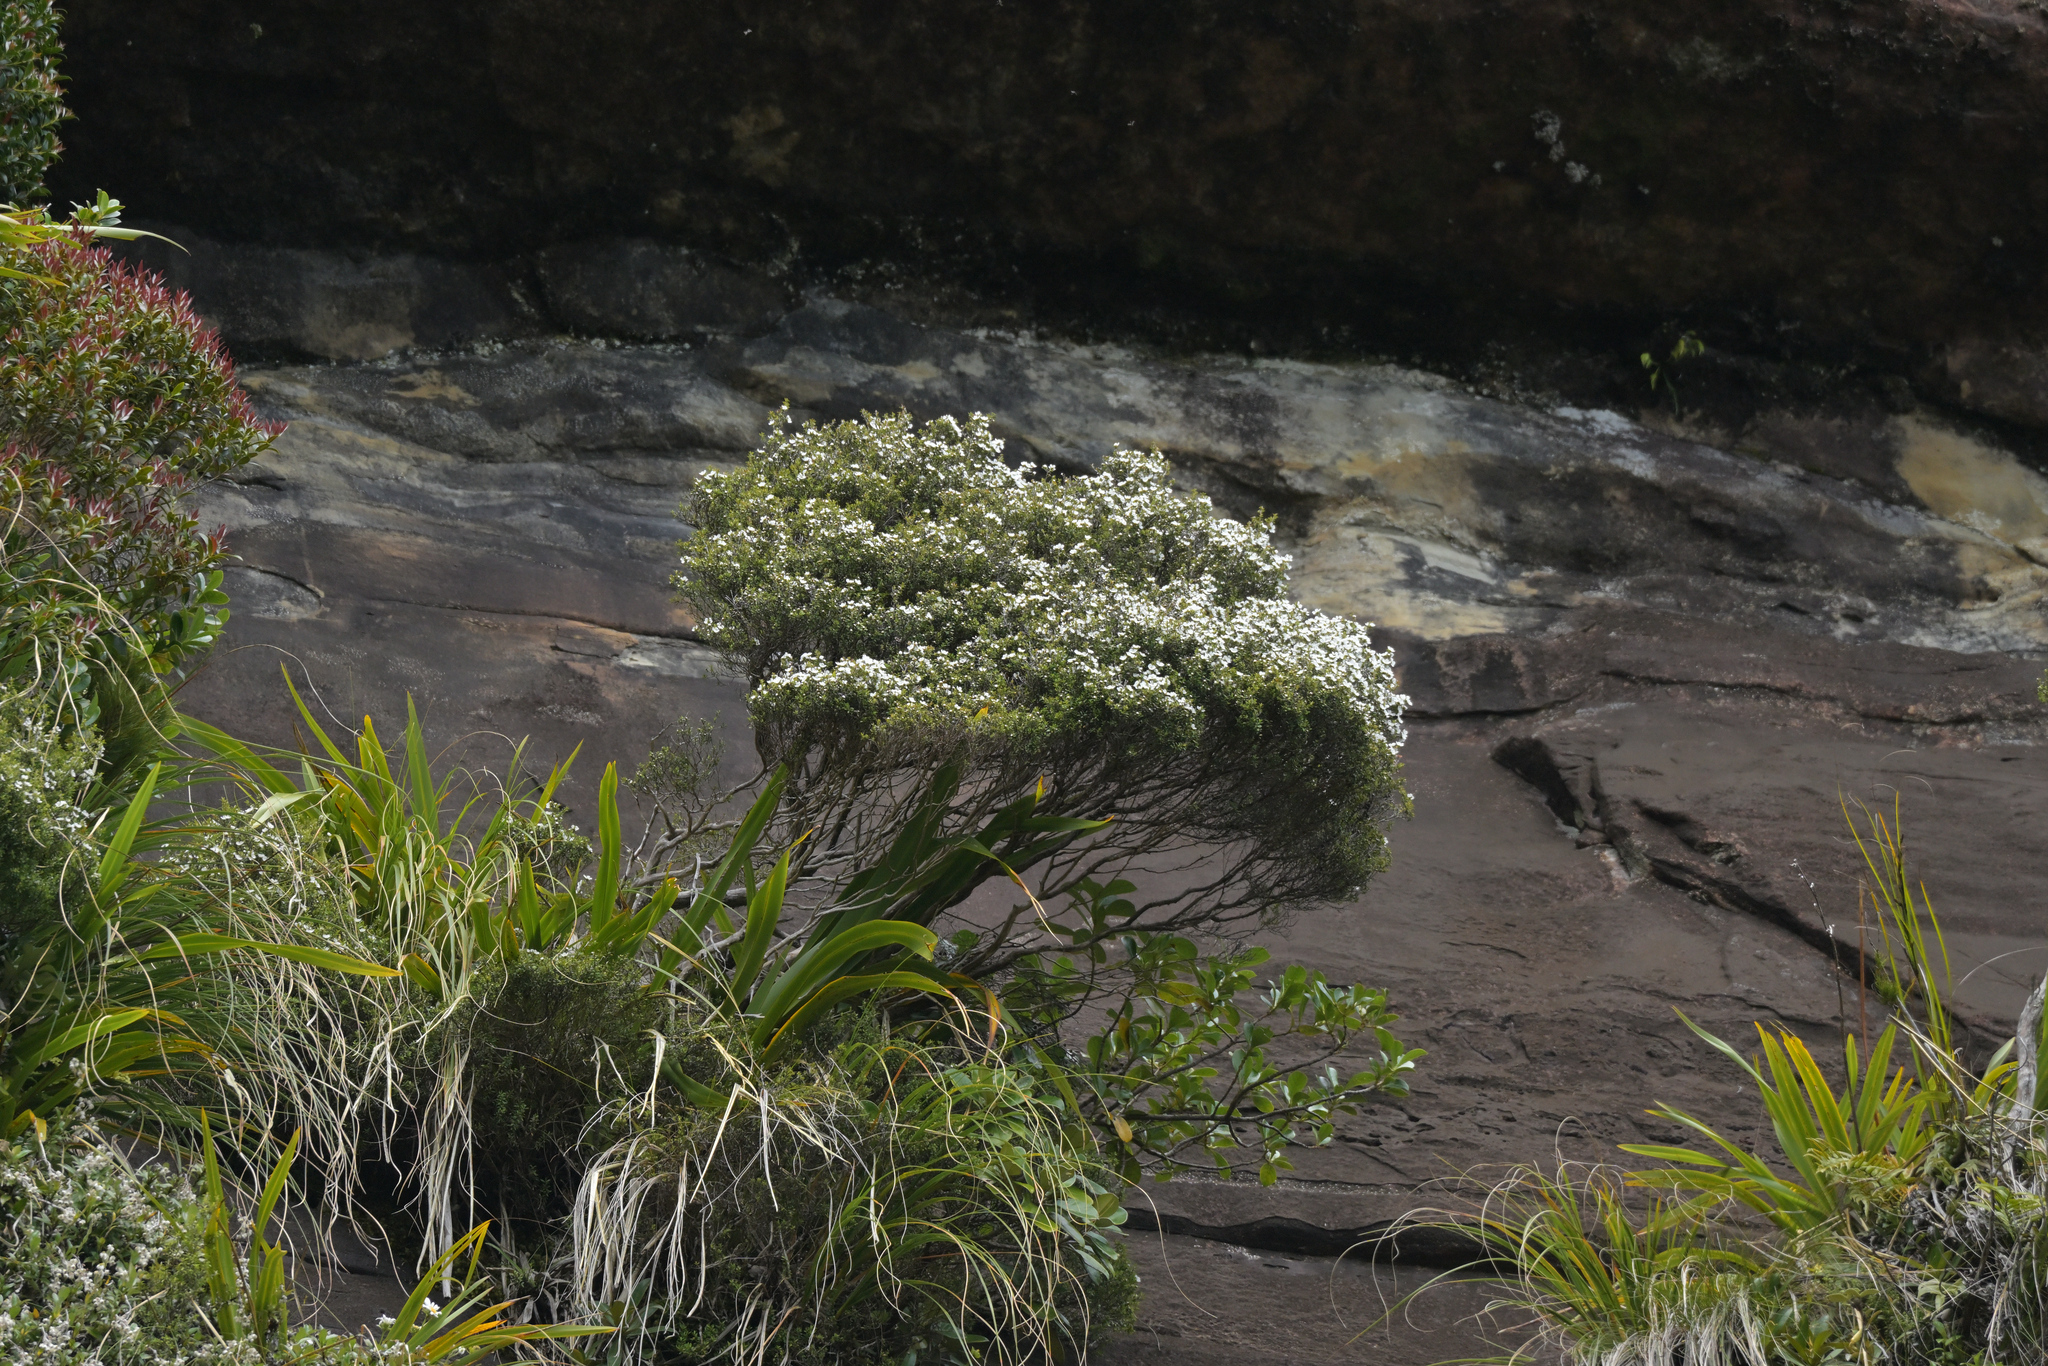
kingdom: Plantae
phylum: Tracheophyta
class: Magnoliopsida
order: Myrtales
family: Myrtaceae
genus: Leptospermum
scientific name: Leptospermum scoparium
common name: Broom tea-tree
